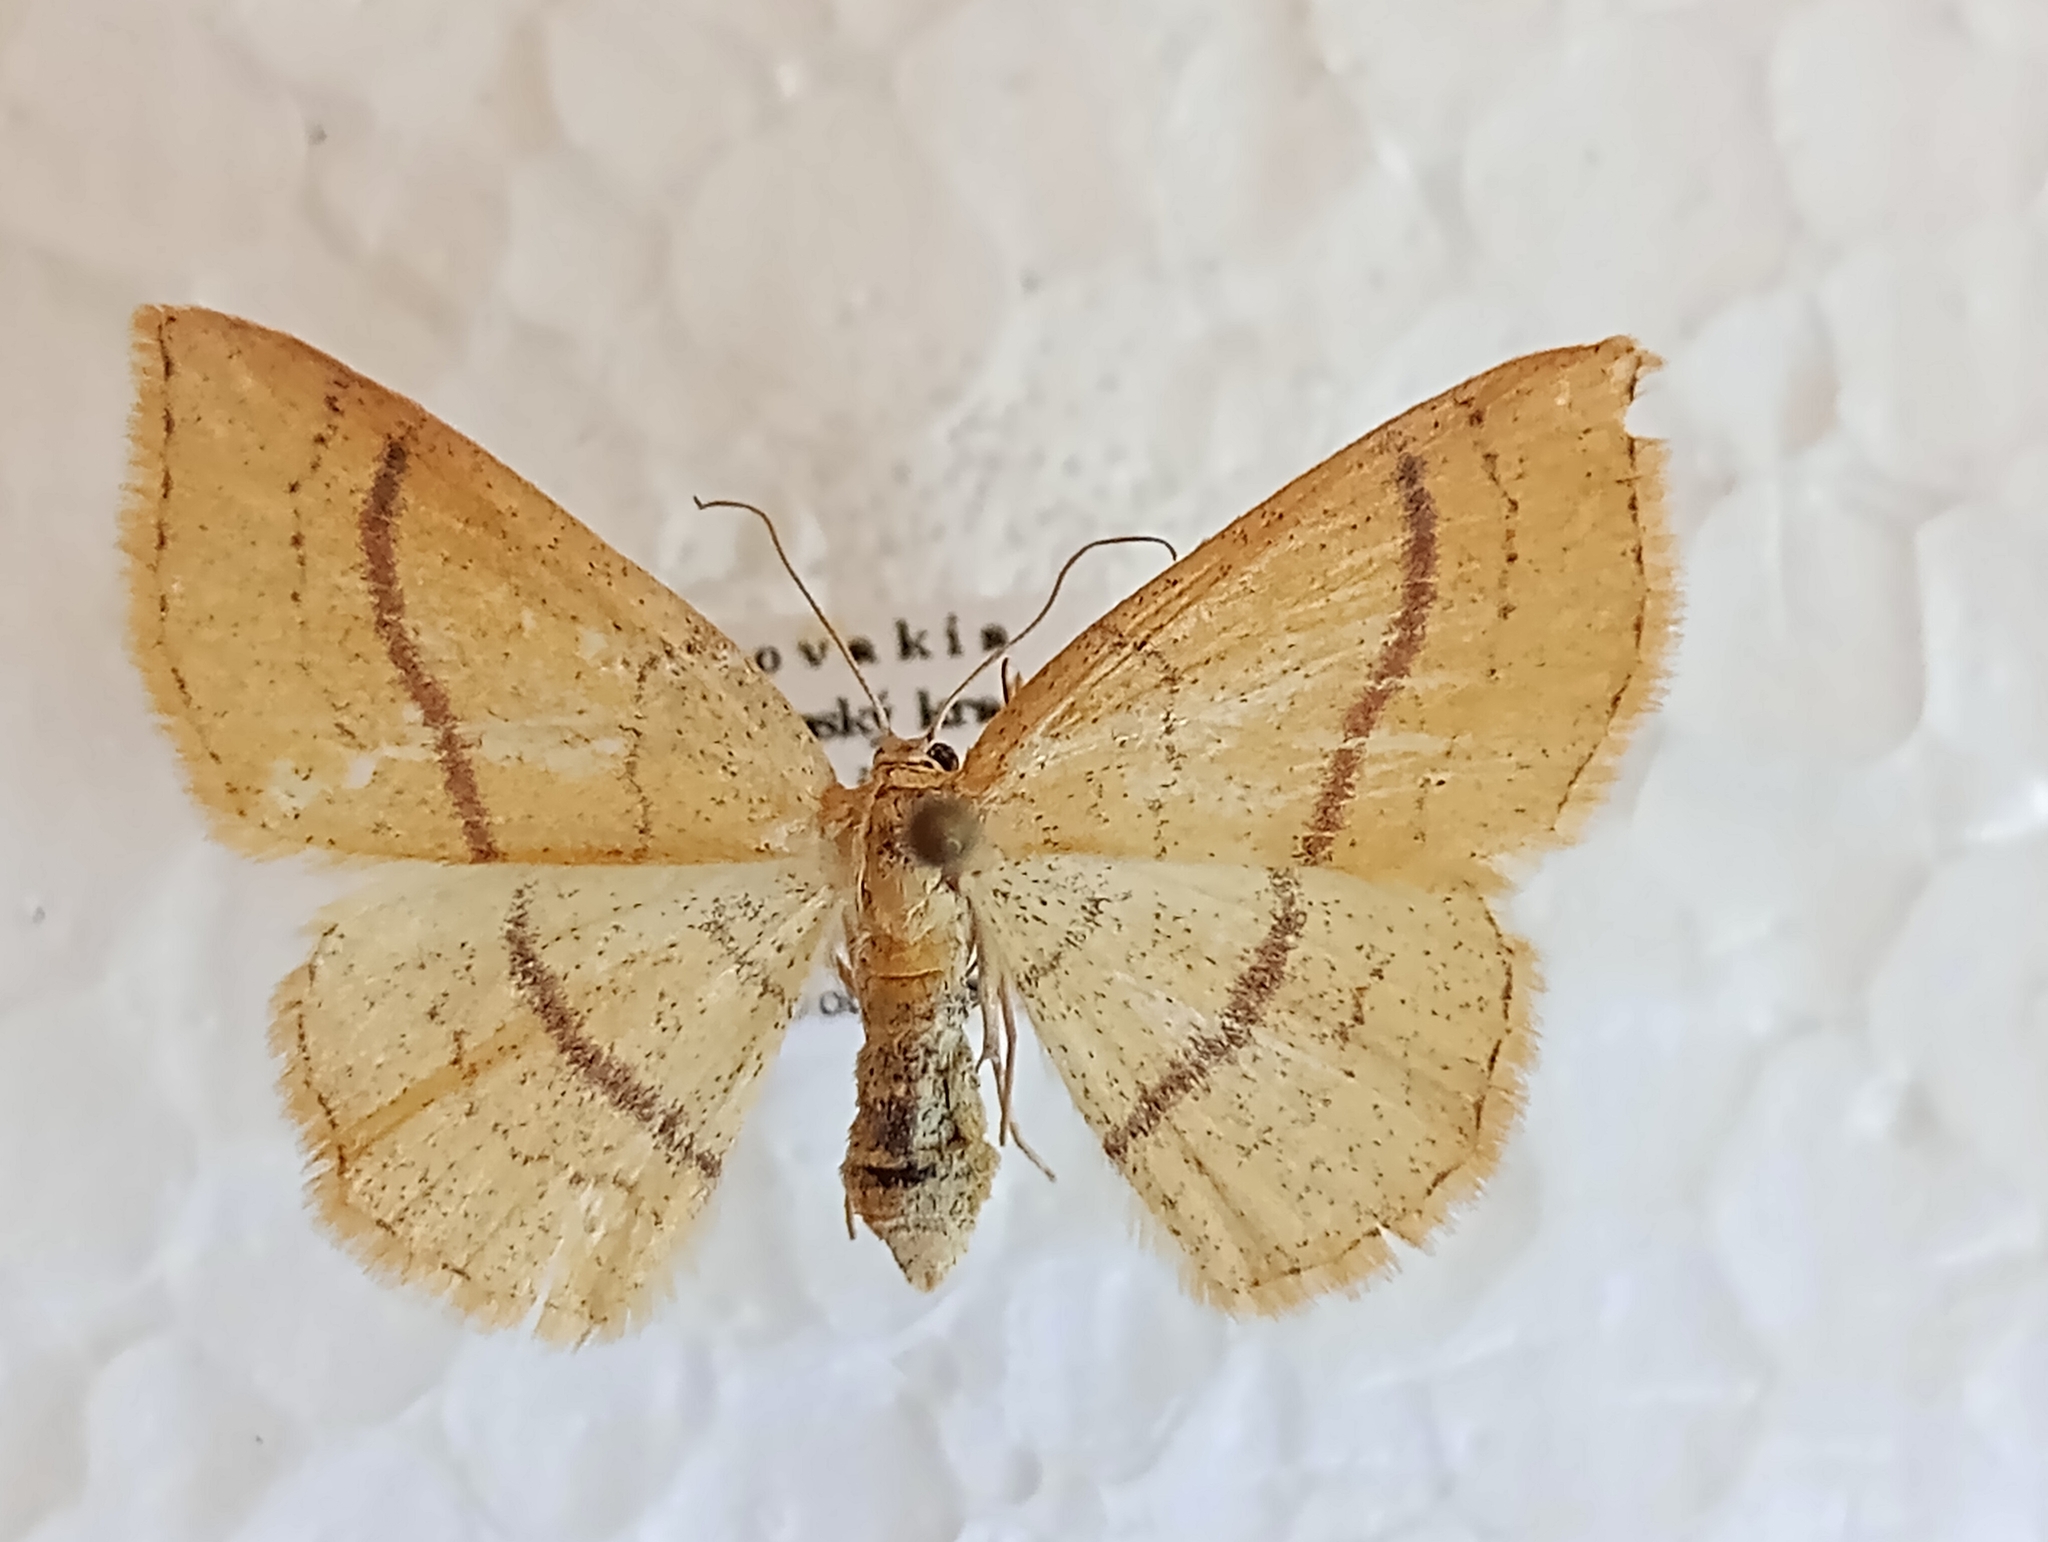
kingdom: Animalia
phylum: Arthropoda
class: Insecta
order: Lepidoptera
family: Geometridae
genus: Cyclophora
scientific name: Cyclophora linearia
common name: Clay triple-lines
